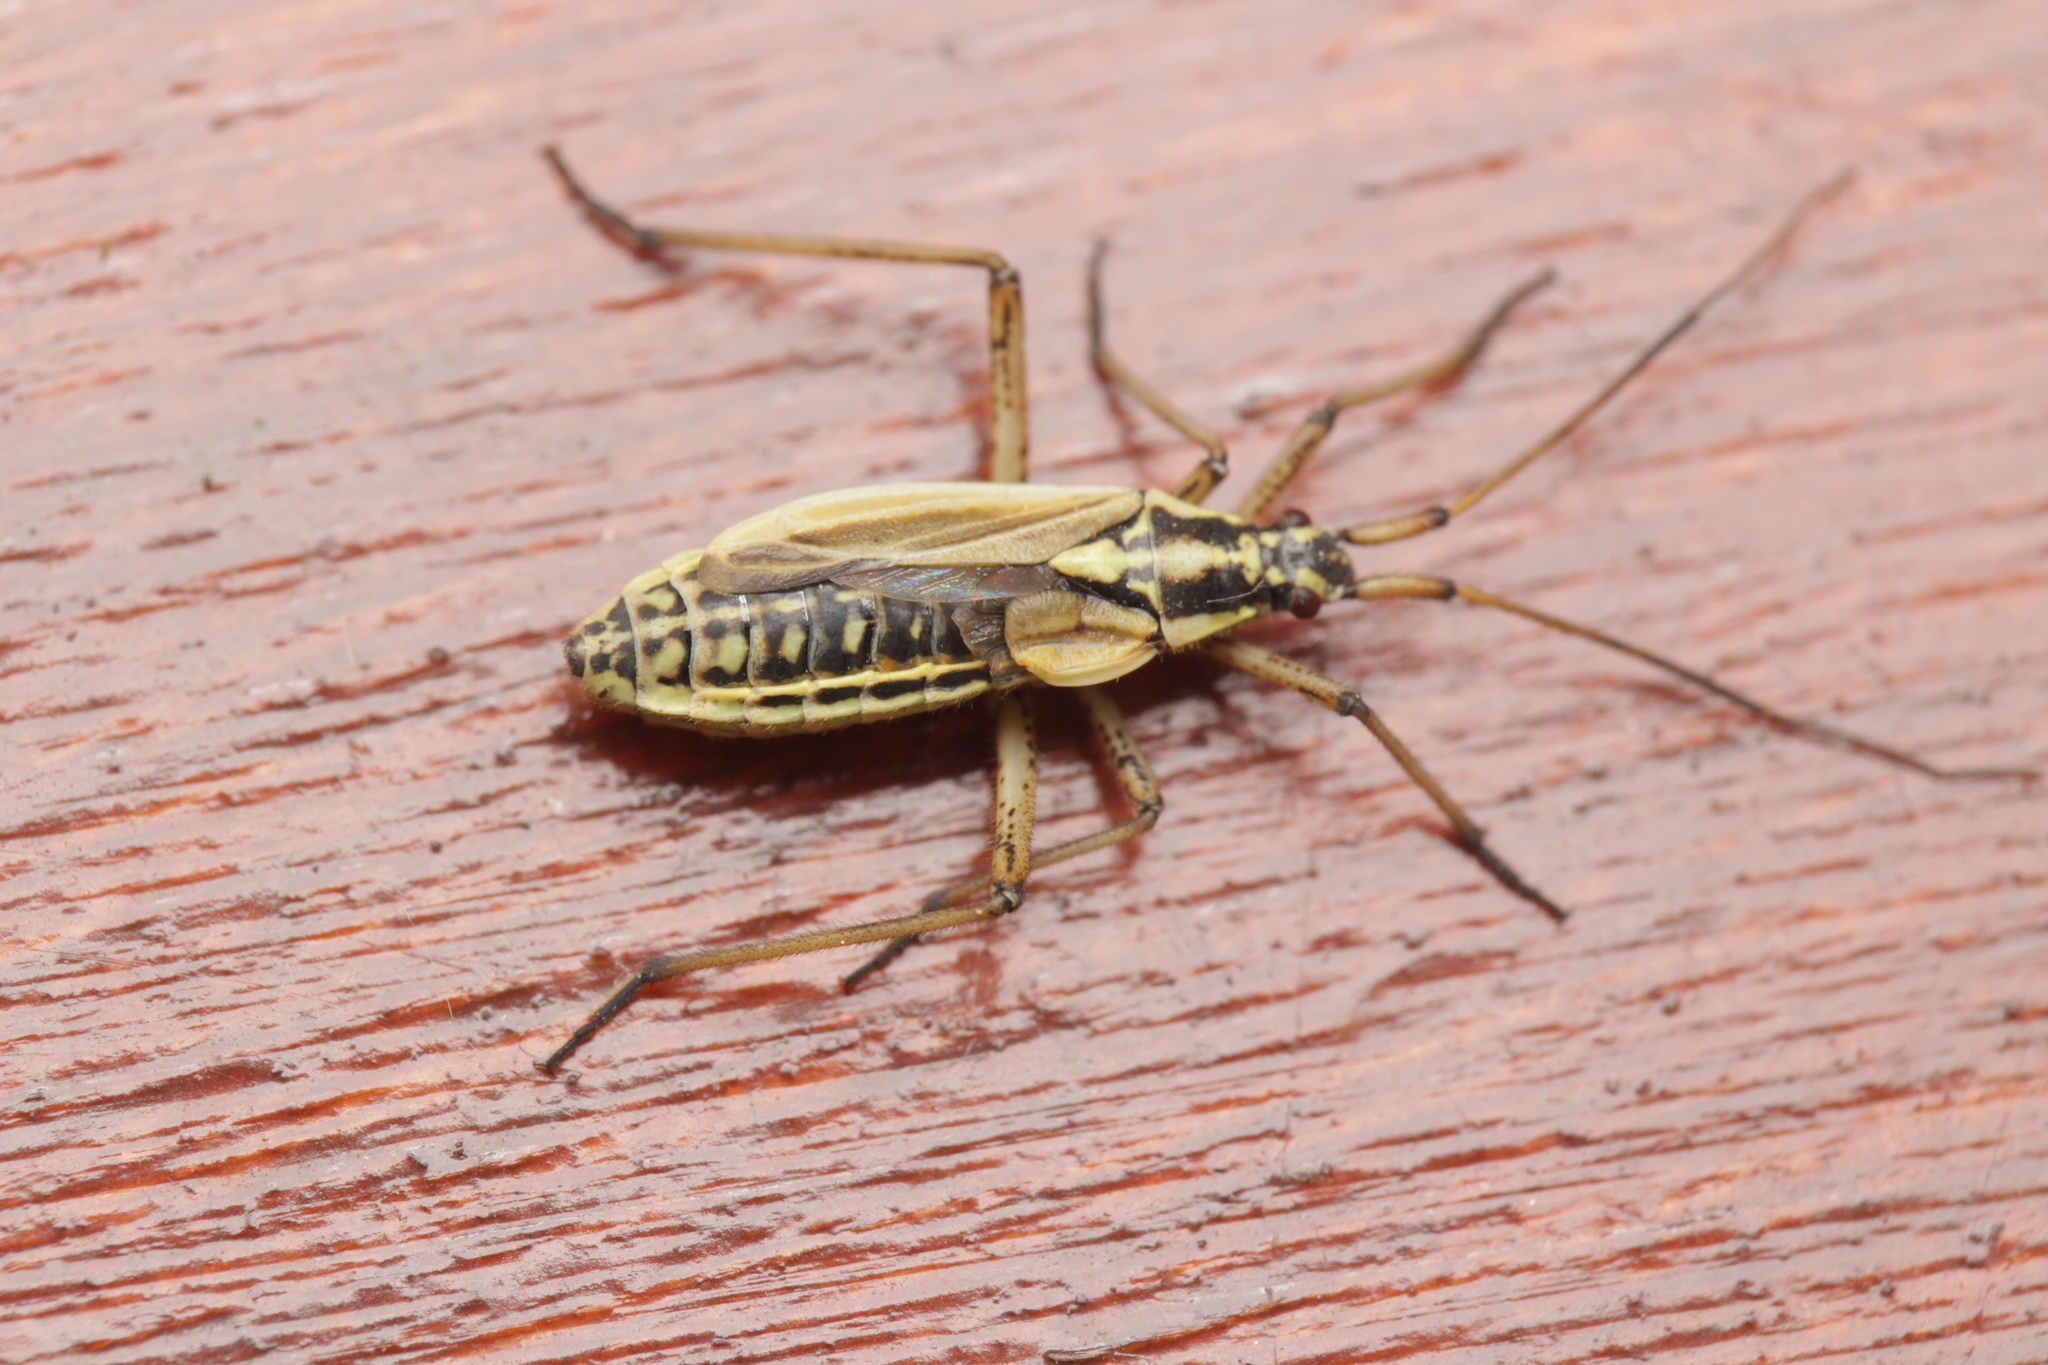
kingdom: Animalia
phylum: Arthropoda
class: Insecta
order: Hemiptera
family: Miridae
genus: Leptopterna
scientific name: Leptopterna dolabrata
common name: Meadow plant bug
